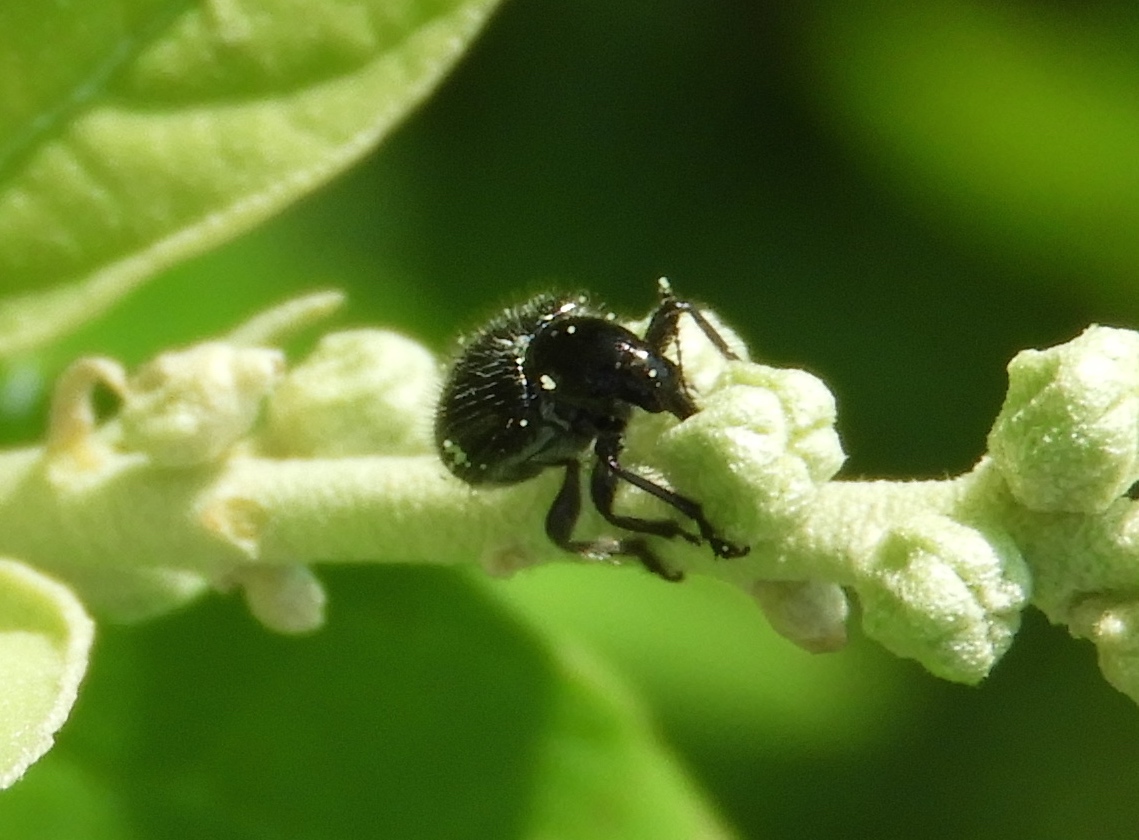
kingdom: Animalia
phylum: Arthropoda
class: Insecta
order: Coleoptera
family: Curculionidae
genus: Myrmex
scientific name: Myrmex
